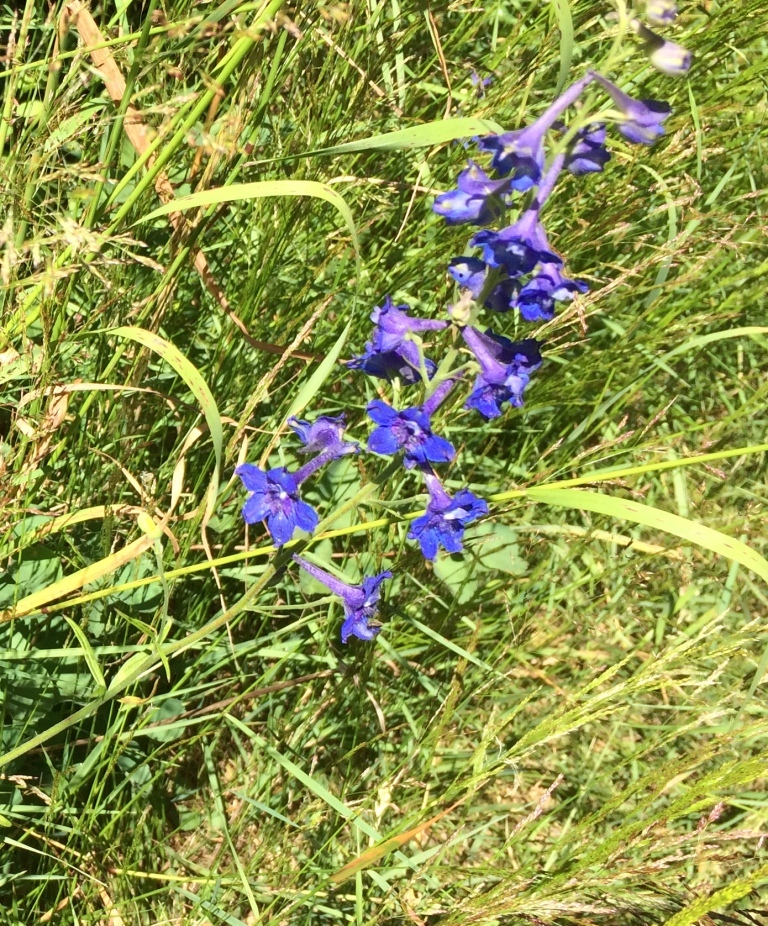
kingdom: Plantae
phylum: Tracheophyta
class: Magnoliopsida
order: Ranunculales
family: Ranunculaceae
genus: Delphinium
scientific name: Delphinium nuttallii
